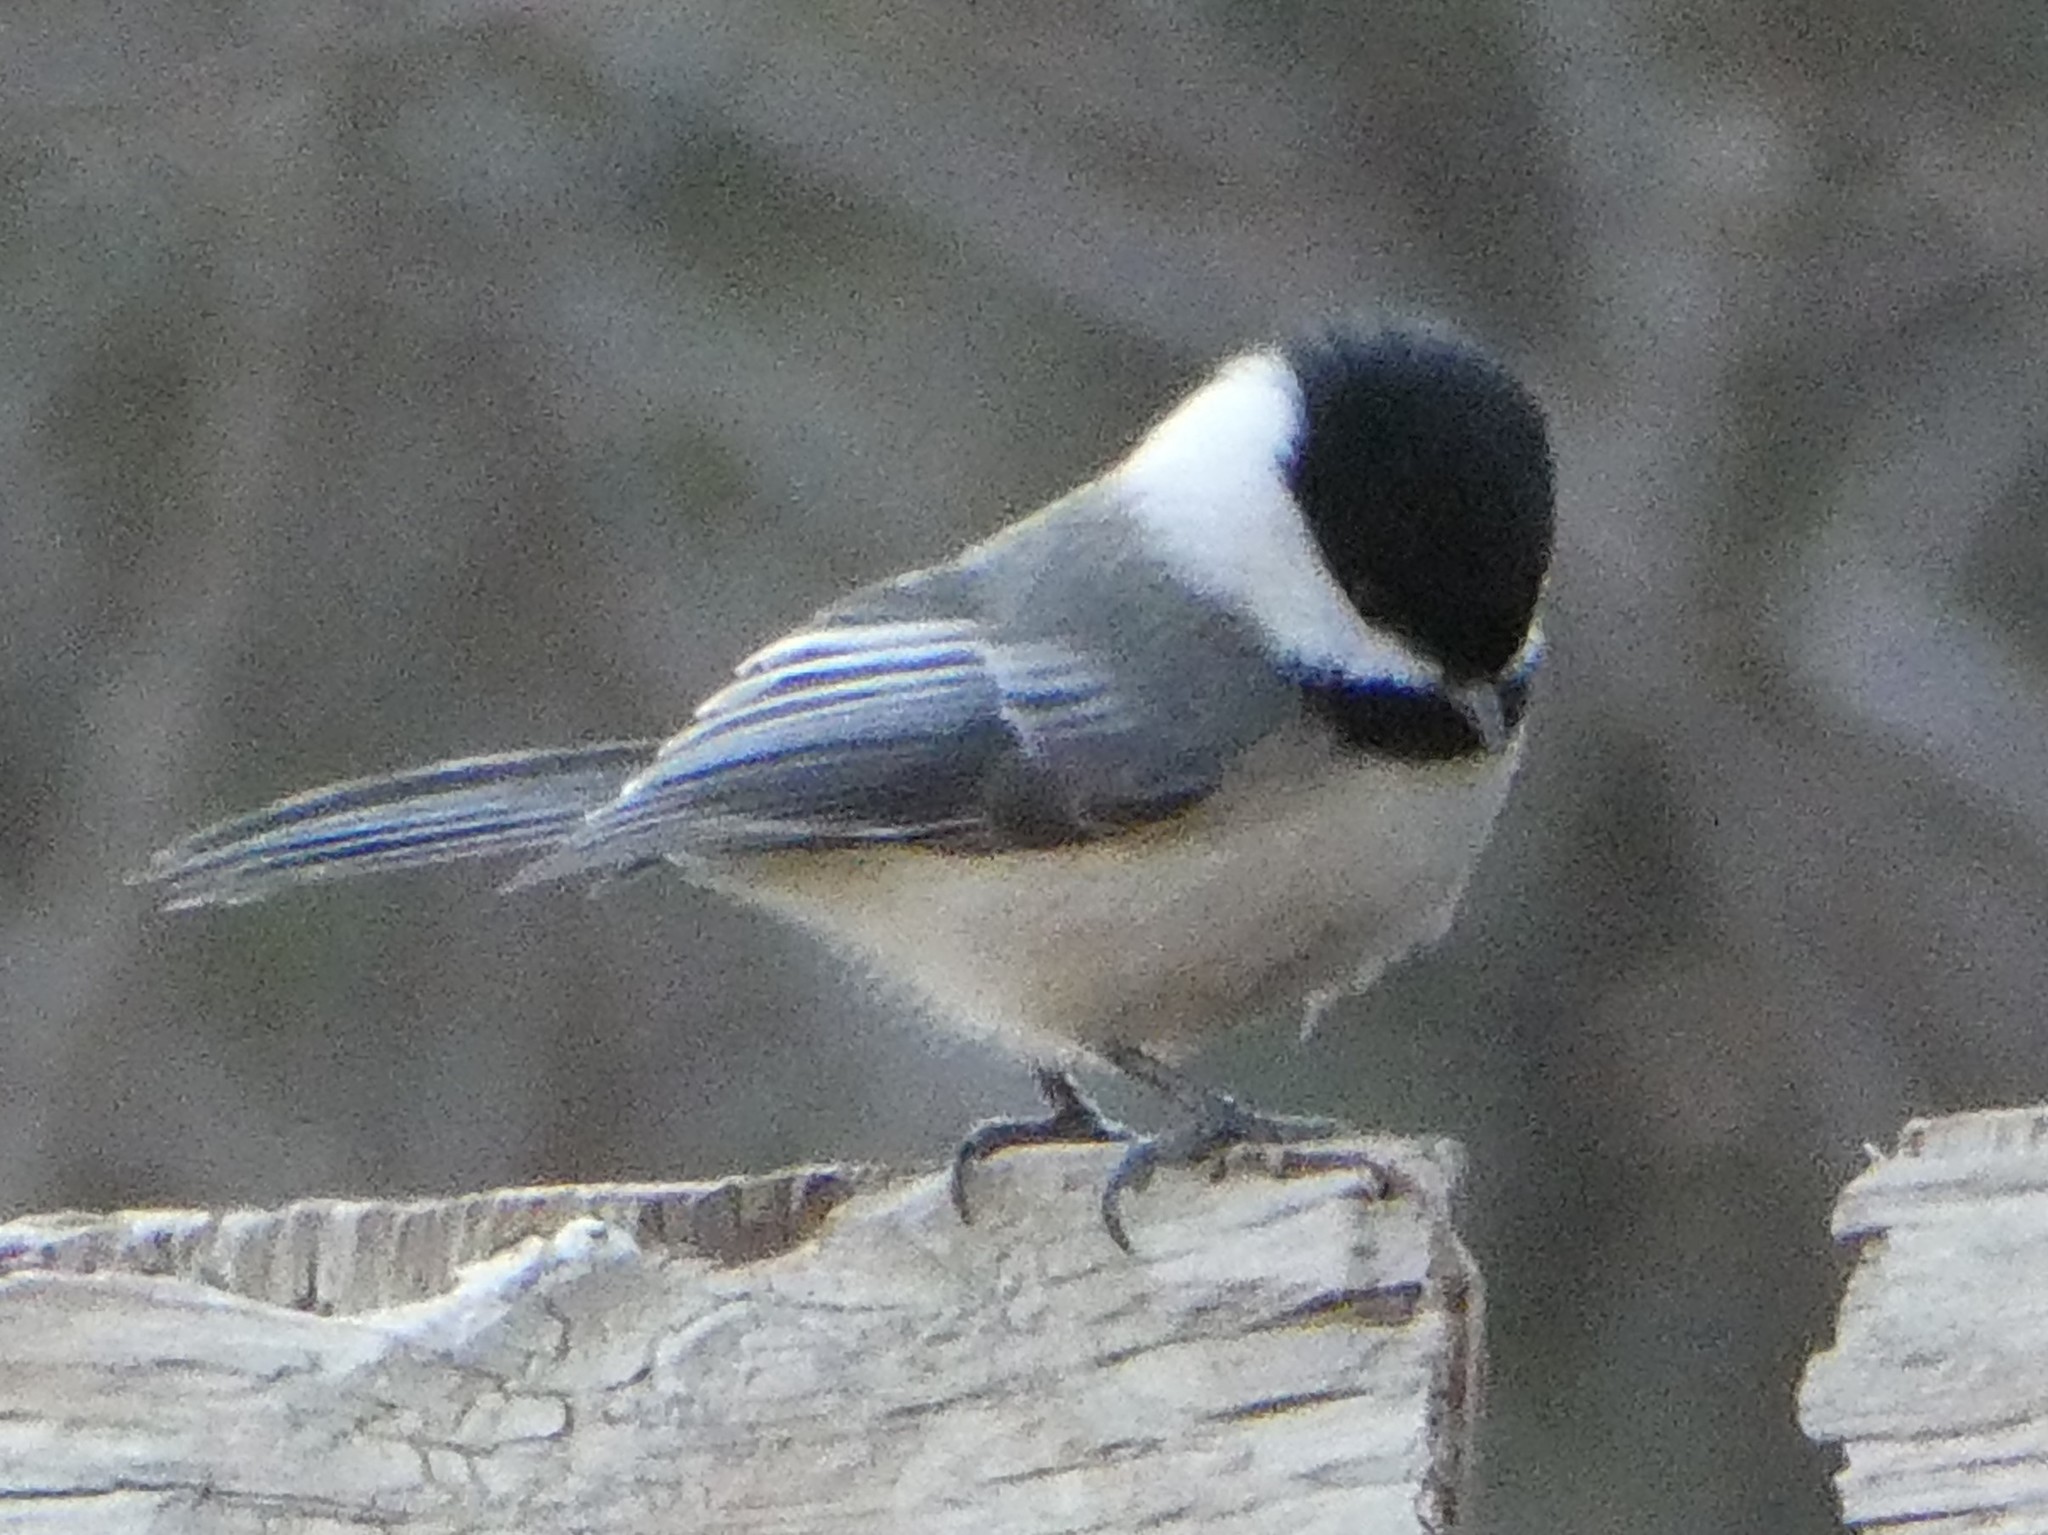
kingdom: Animalia
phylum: Chordata
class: Aves
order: Passeriformes
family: Paridae
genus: Poecile
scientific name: Poecile atricapillus
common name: Black-capped chickadee
